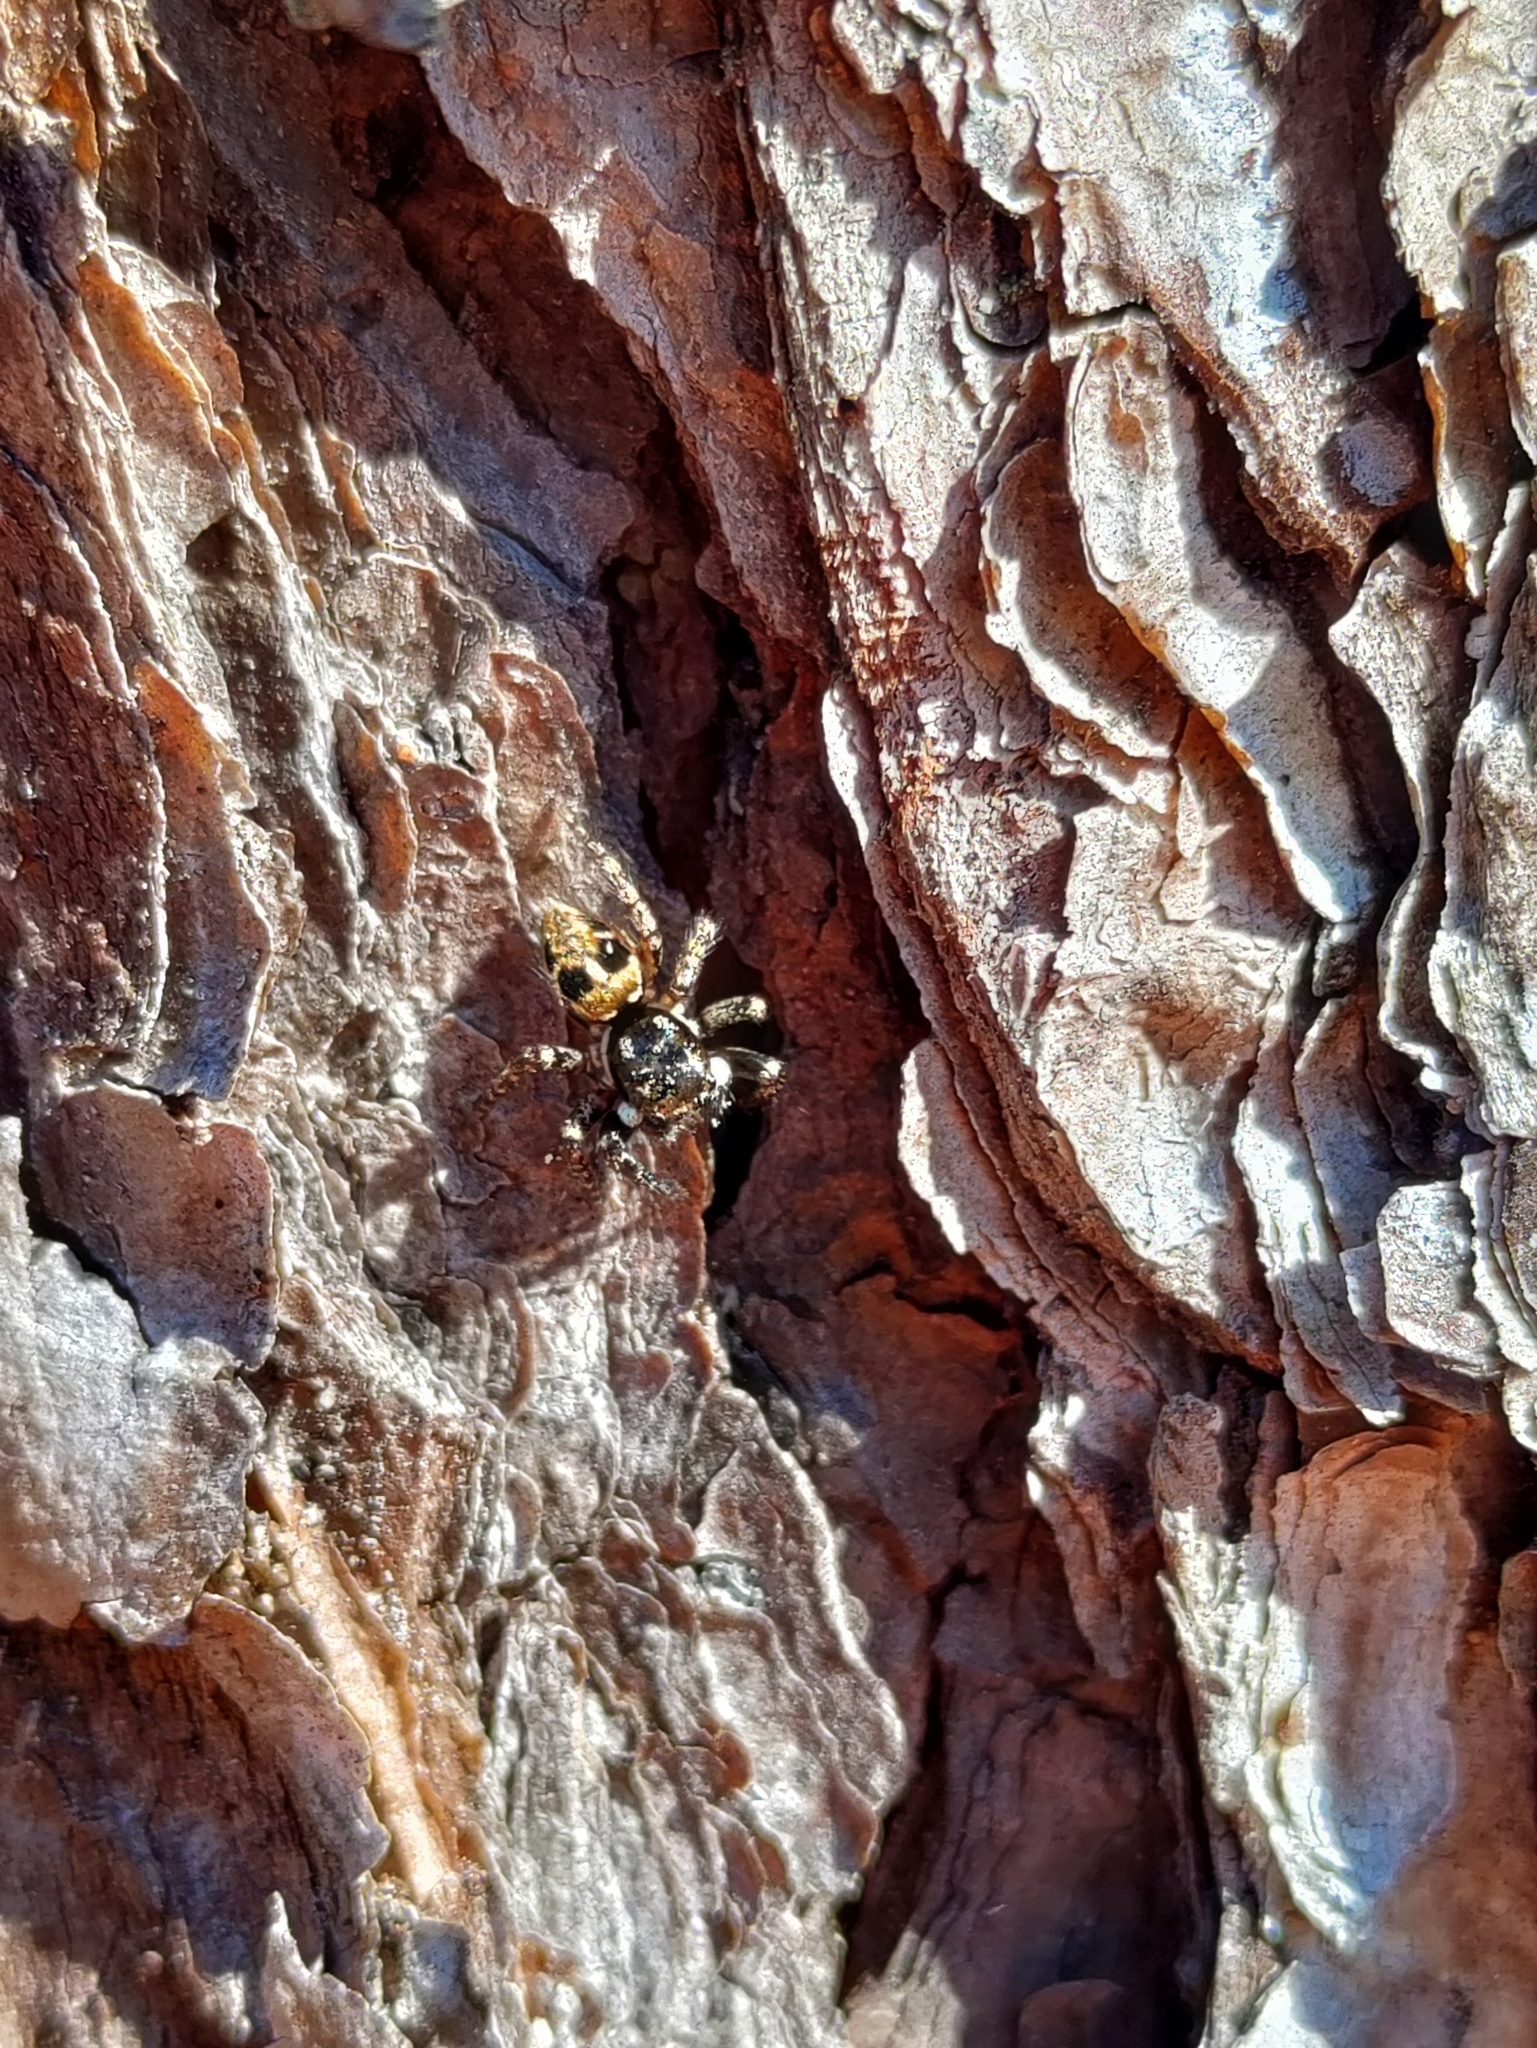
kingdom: Animalia
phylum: Arthropoda
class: Arachnida
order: Araneae
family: Salticidae
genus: Anasaitis
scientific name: Anasaitis canosa
